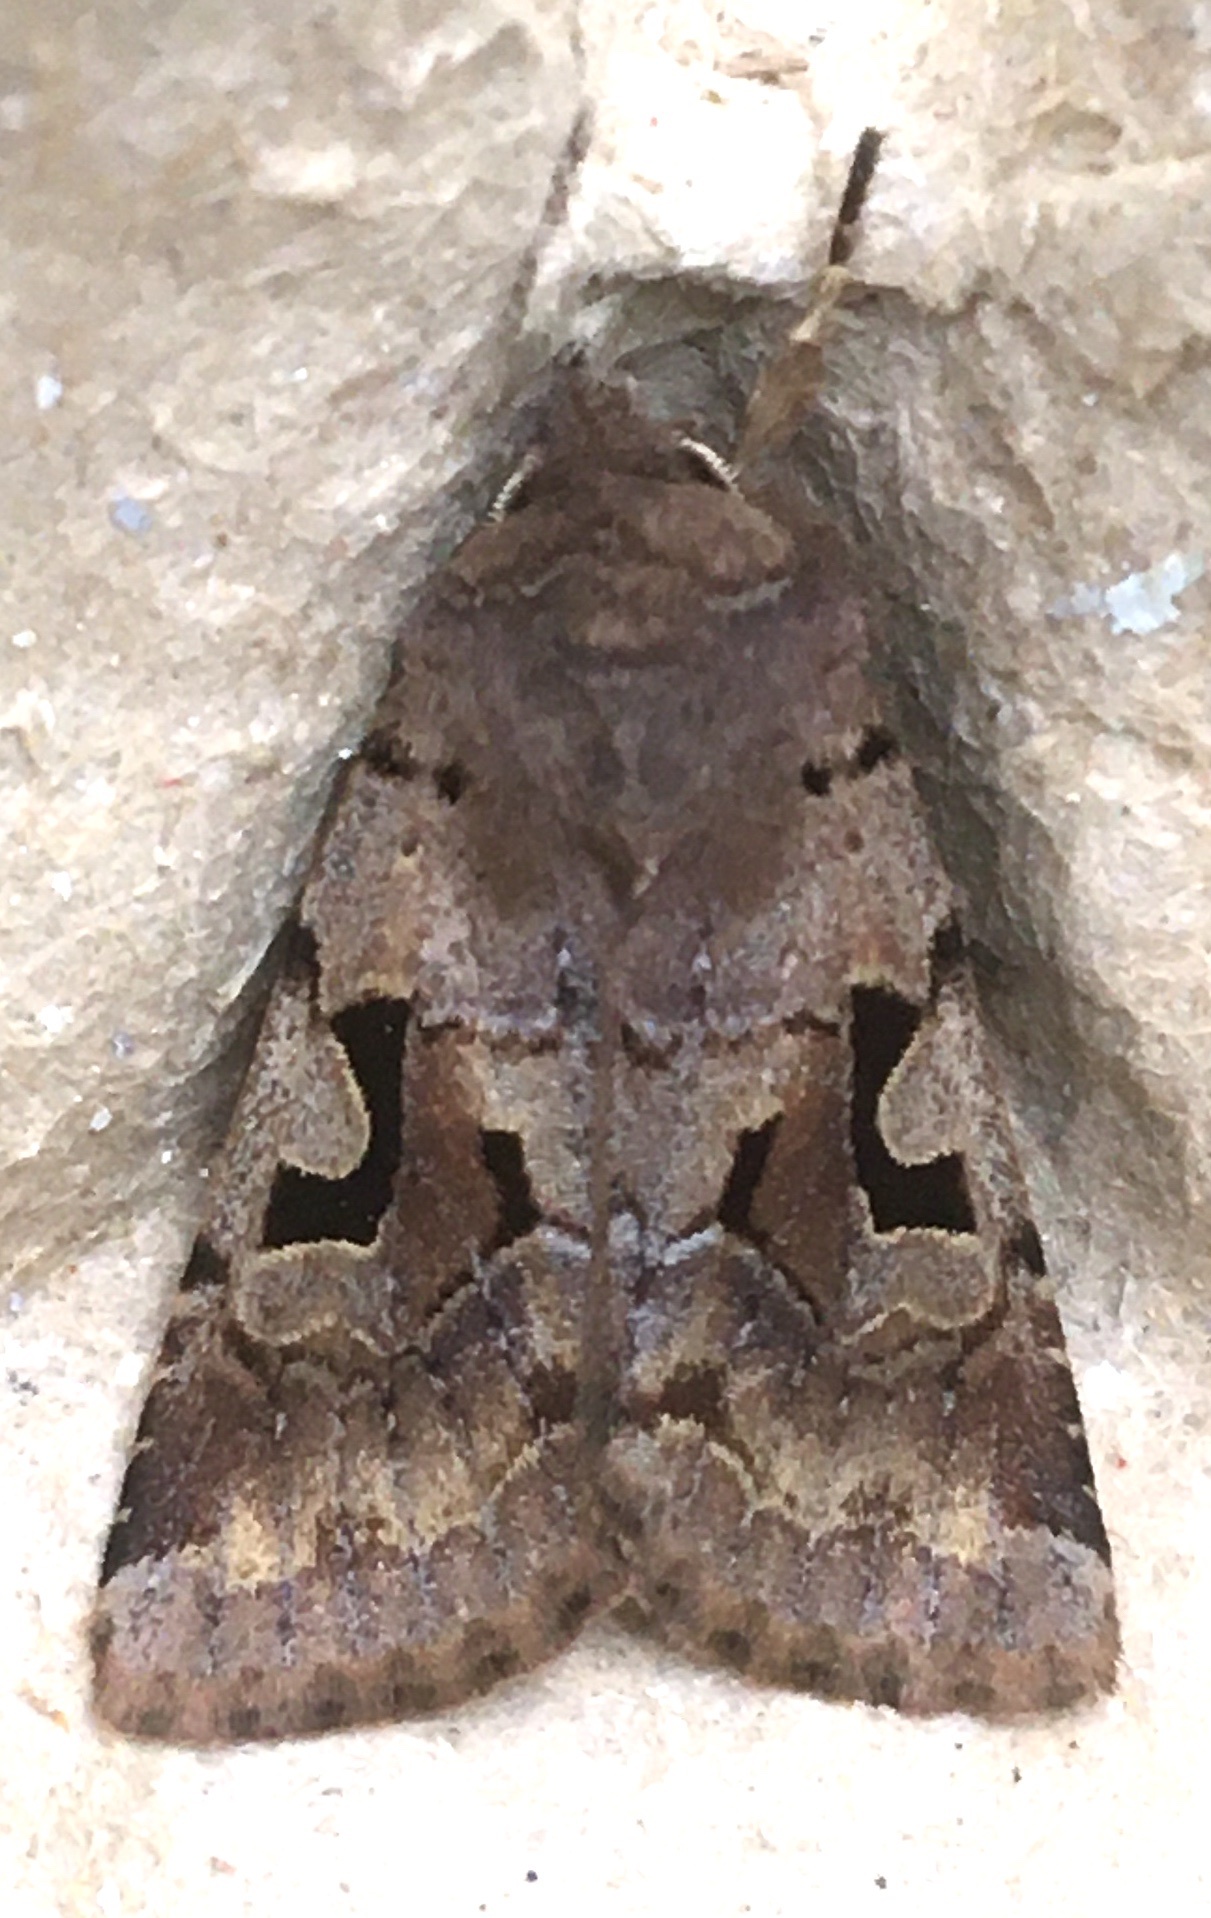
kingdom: Animalia
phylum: Arthropoda
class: Insecta
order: Lepidoptera
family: Noctuidae
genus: Orthosia
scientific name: Orthosia gothica
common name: Hebrew character
